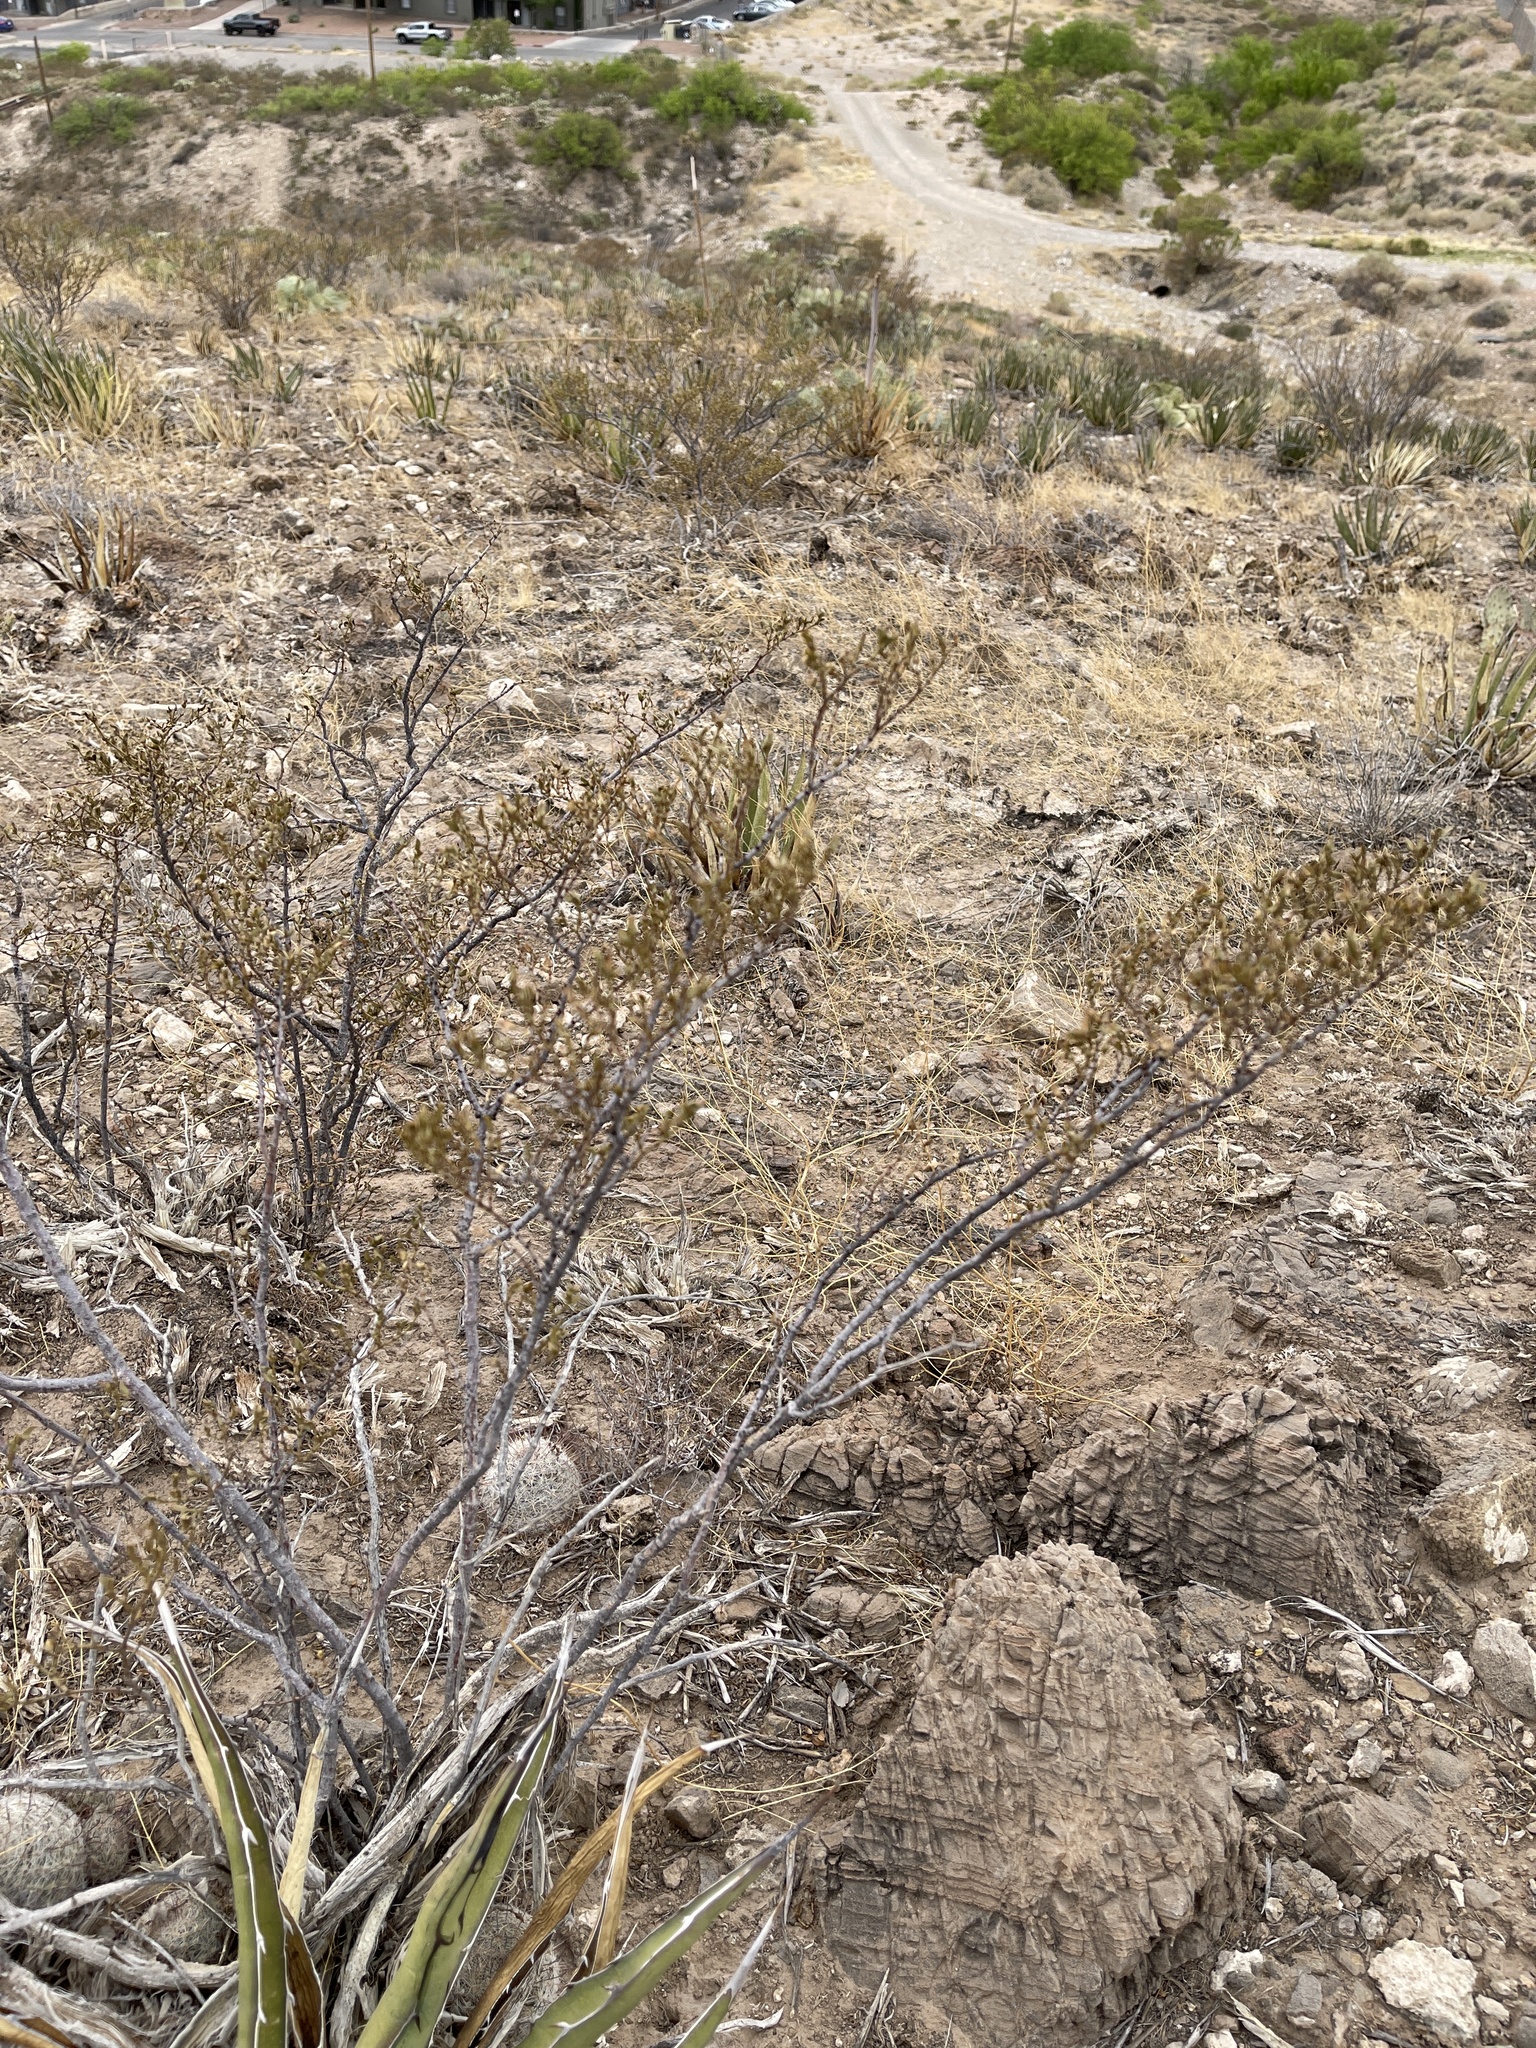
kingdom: Plantae
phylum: Tracheophyta
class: Magnoliopsida
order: Zygophyllales
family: Zygophyllaceae
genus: Larrea
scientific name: Larrea tridentata
